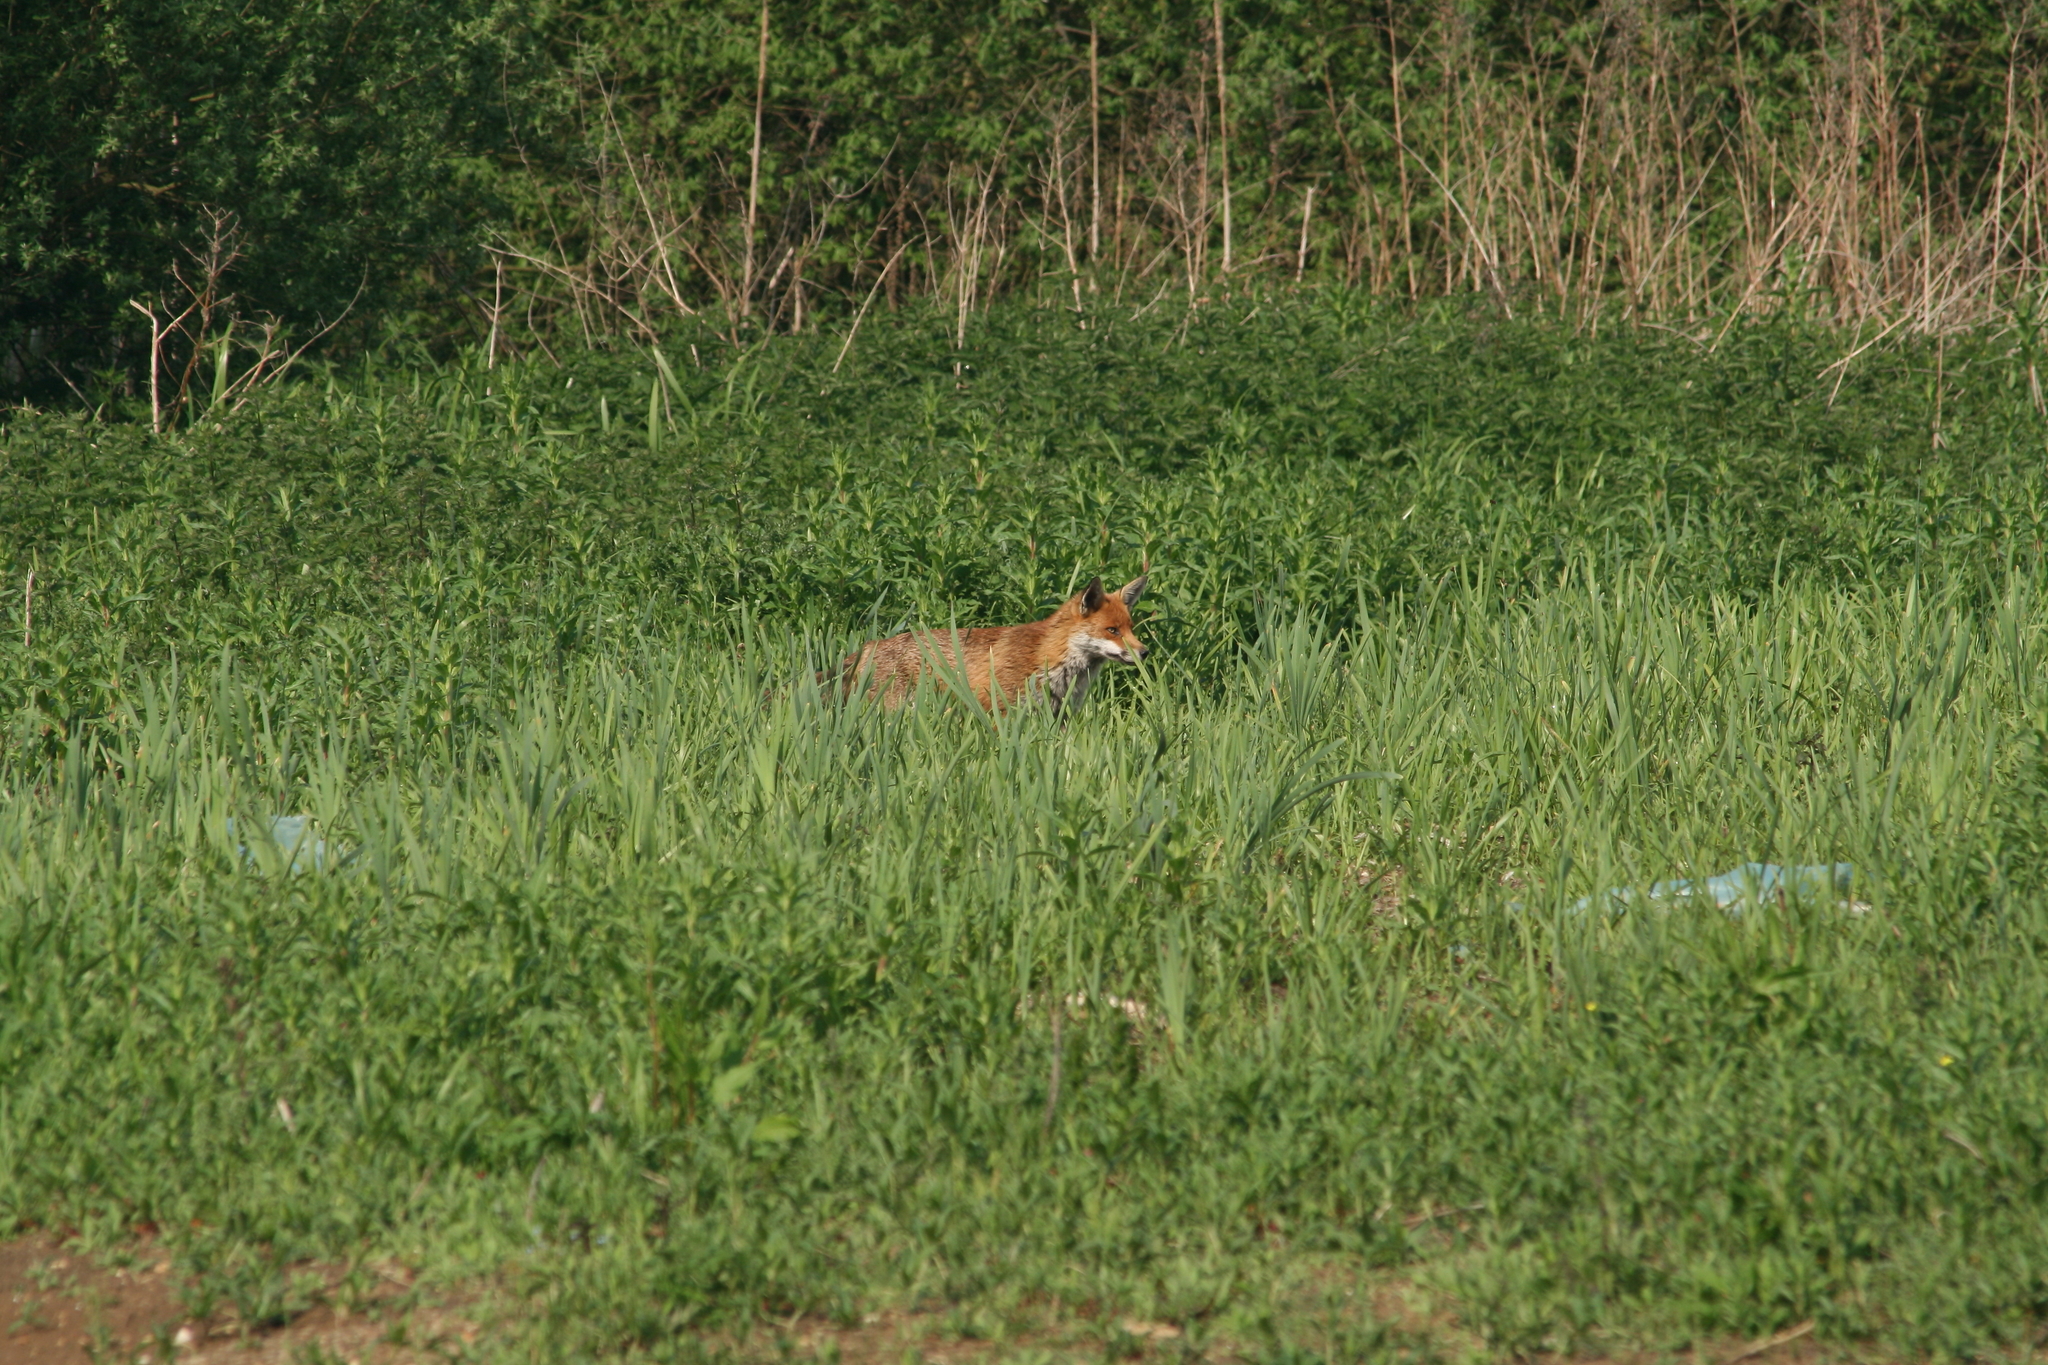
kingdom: Animalia
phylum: Chordata
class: Mammalia
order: Carnivora
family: Canidae
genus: Vulpes
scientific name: Vulpes vulpes
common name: Red fox
